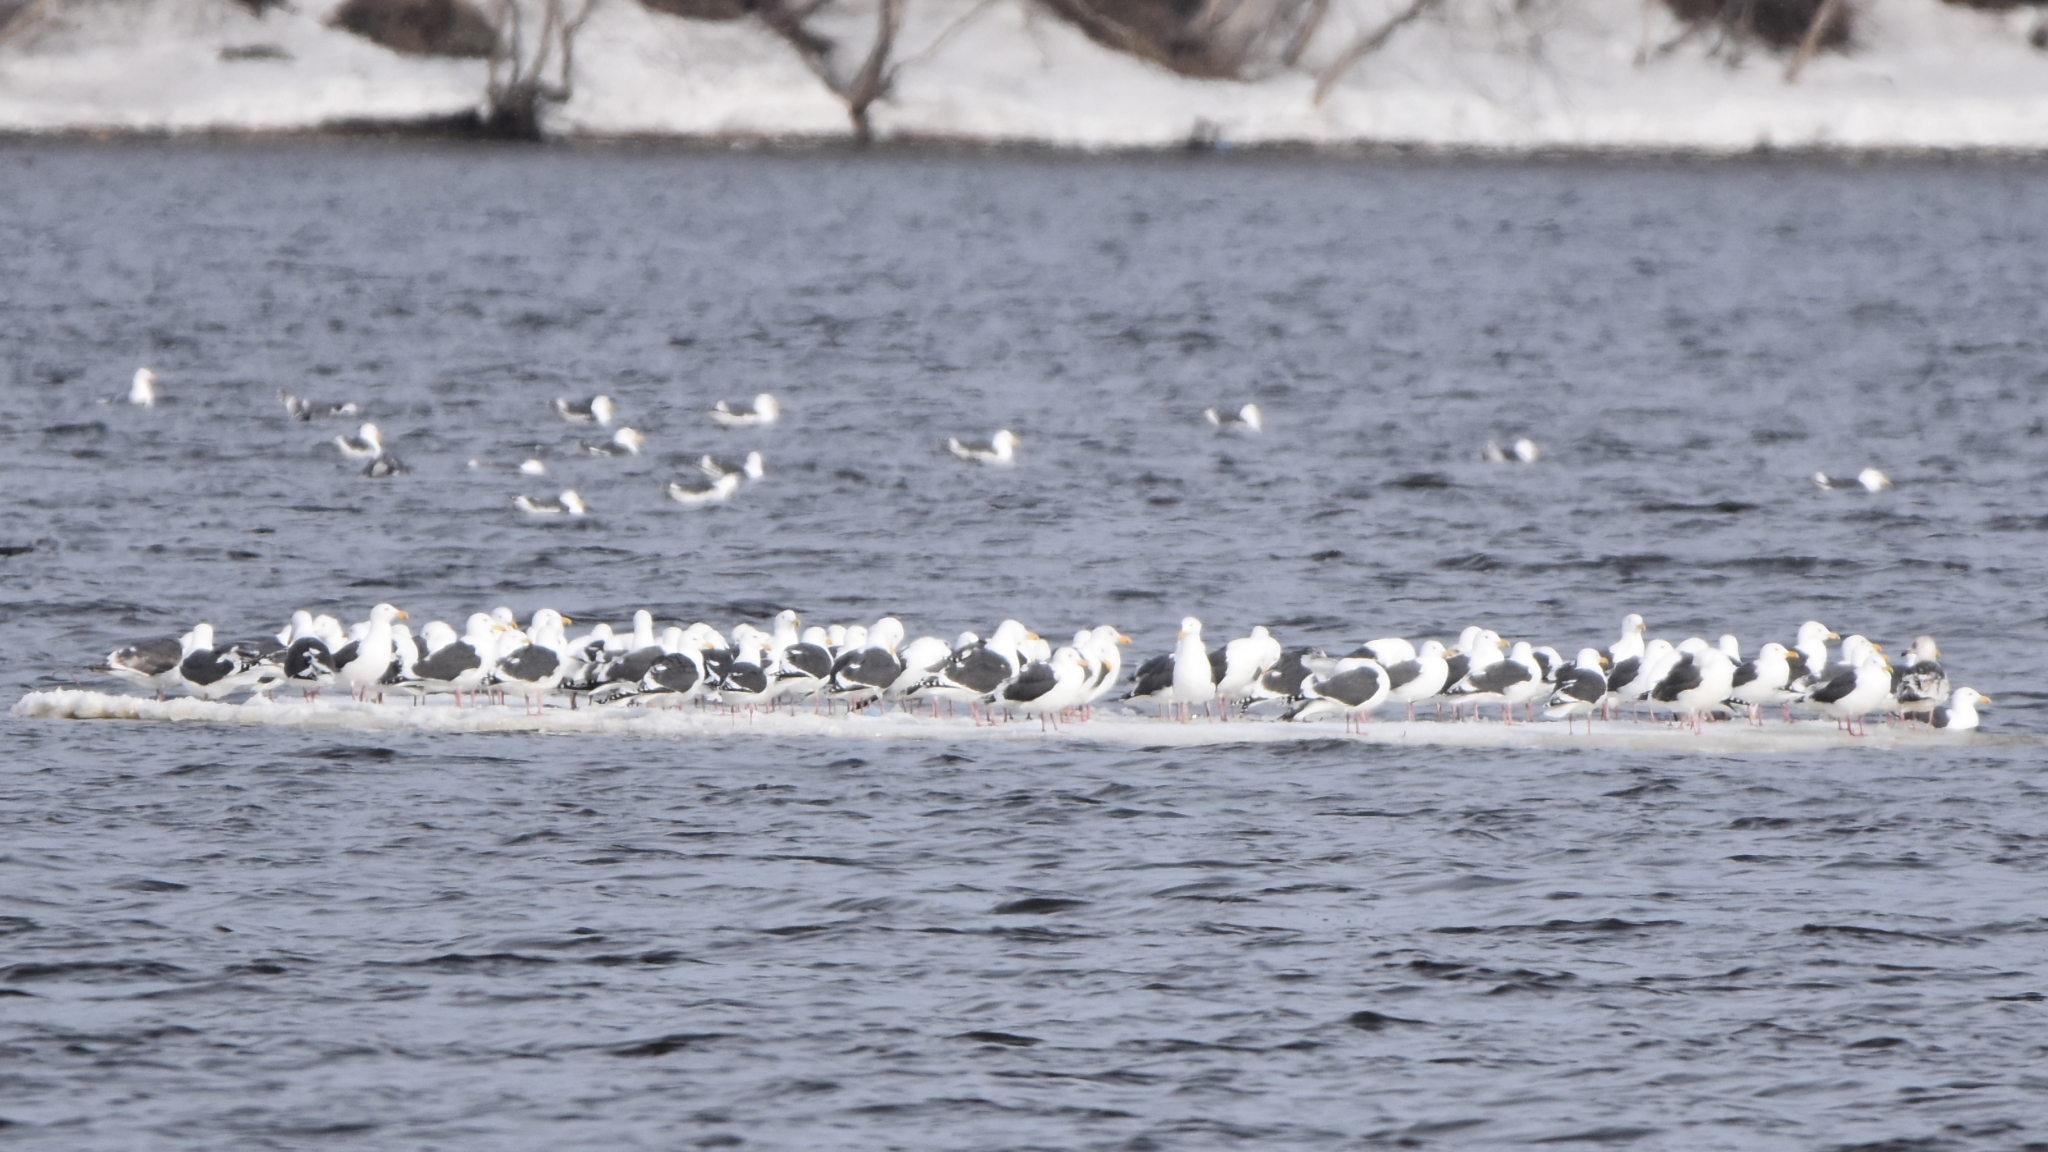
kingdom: Animalia
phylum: Chordata
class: Aves
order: Charadriiformes
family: Laridae
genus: Larus
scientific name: Larus schistisagus
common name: Slaty-backed gull
